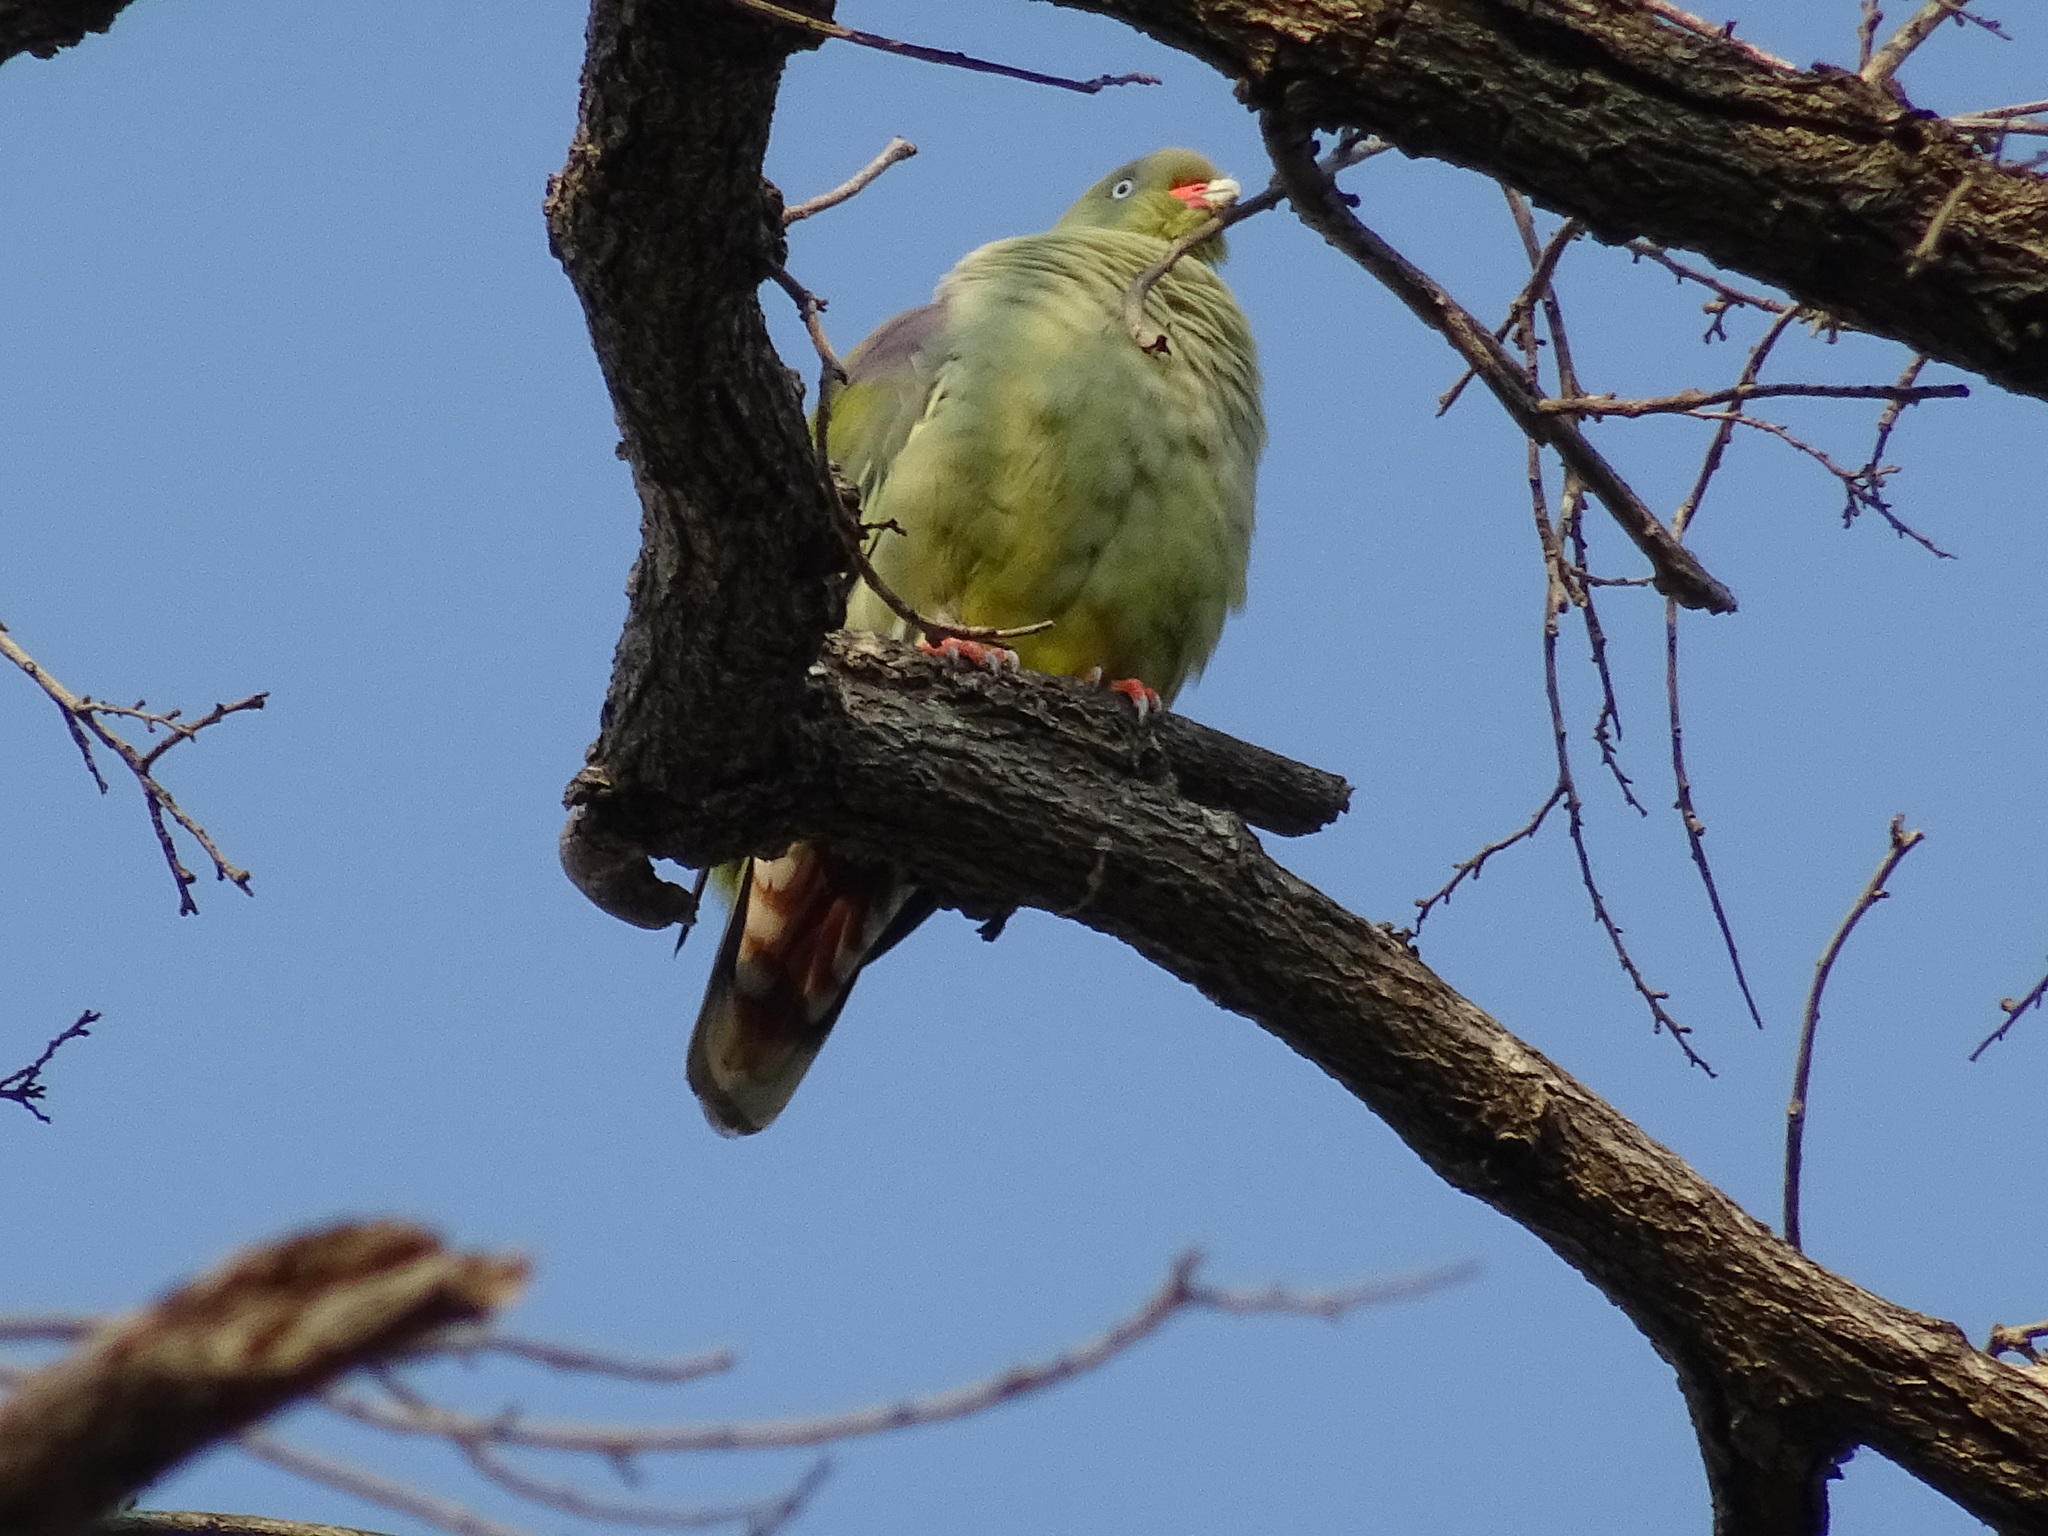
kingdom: Animalia
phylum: Chordata
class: Aves
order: Columbiformes
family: Columbidae
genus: Treron
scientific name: Treron calvus
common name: African green pigeon
